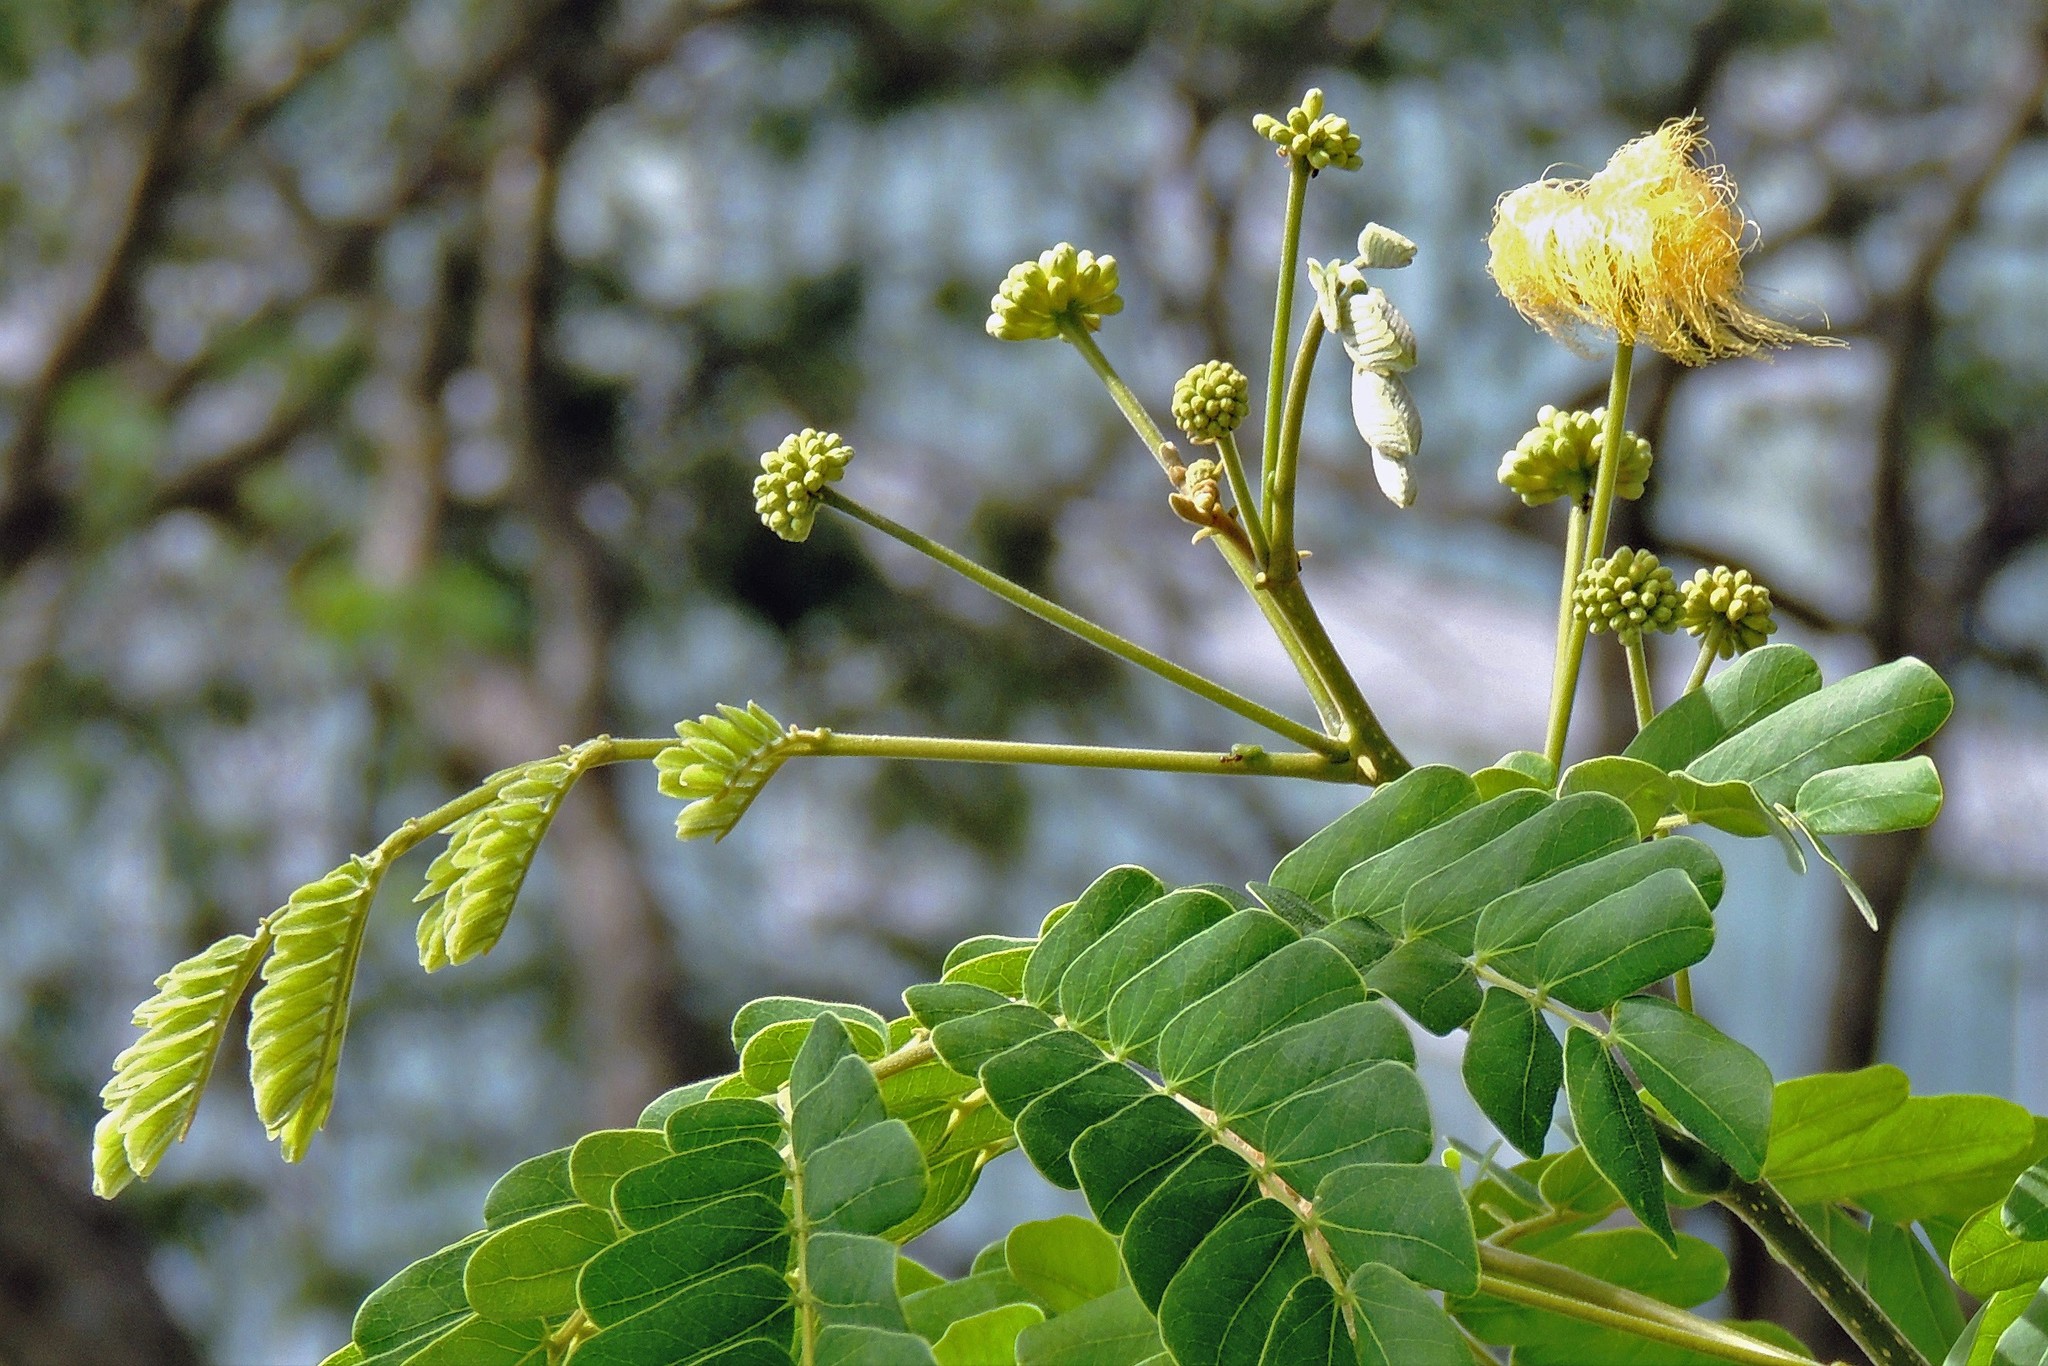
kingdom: Plantae
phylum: Tracheophyta
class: Magnoliopsida
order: Fabales
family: Fabaceae
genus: Albizia
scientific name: Albizia lebbeck
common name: Woman's tongue
